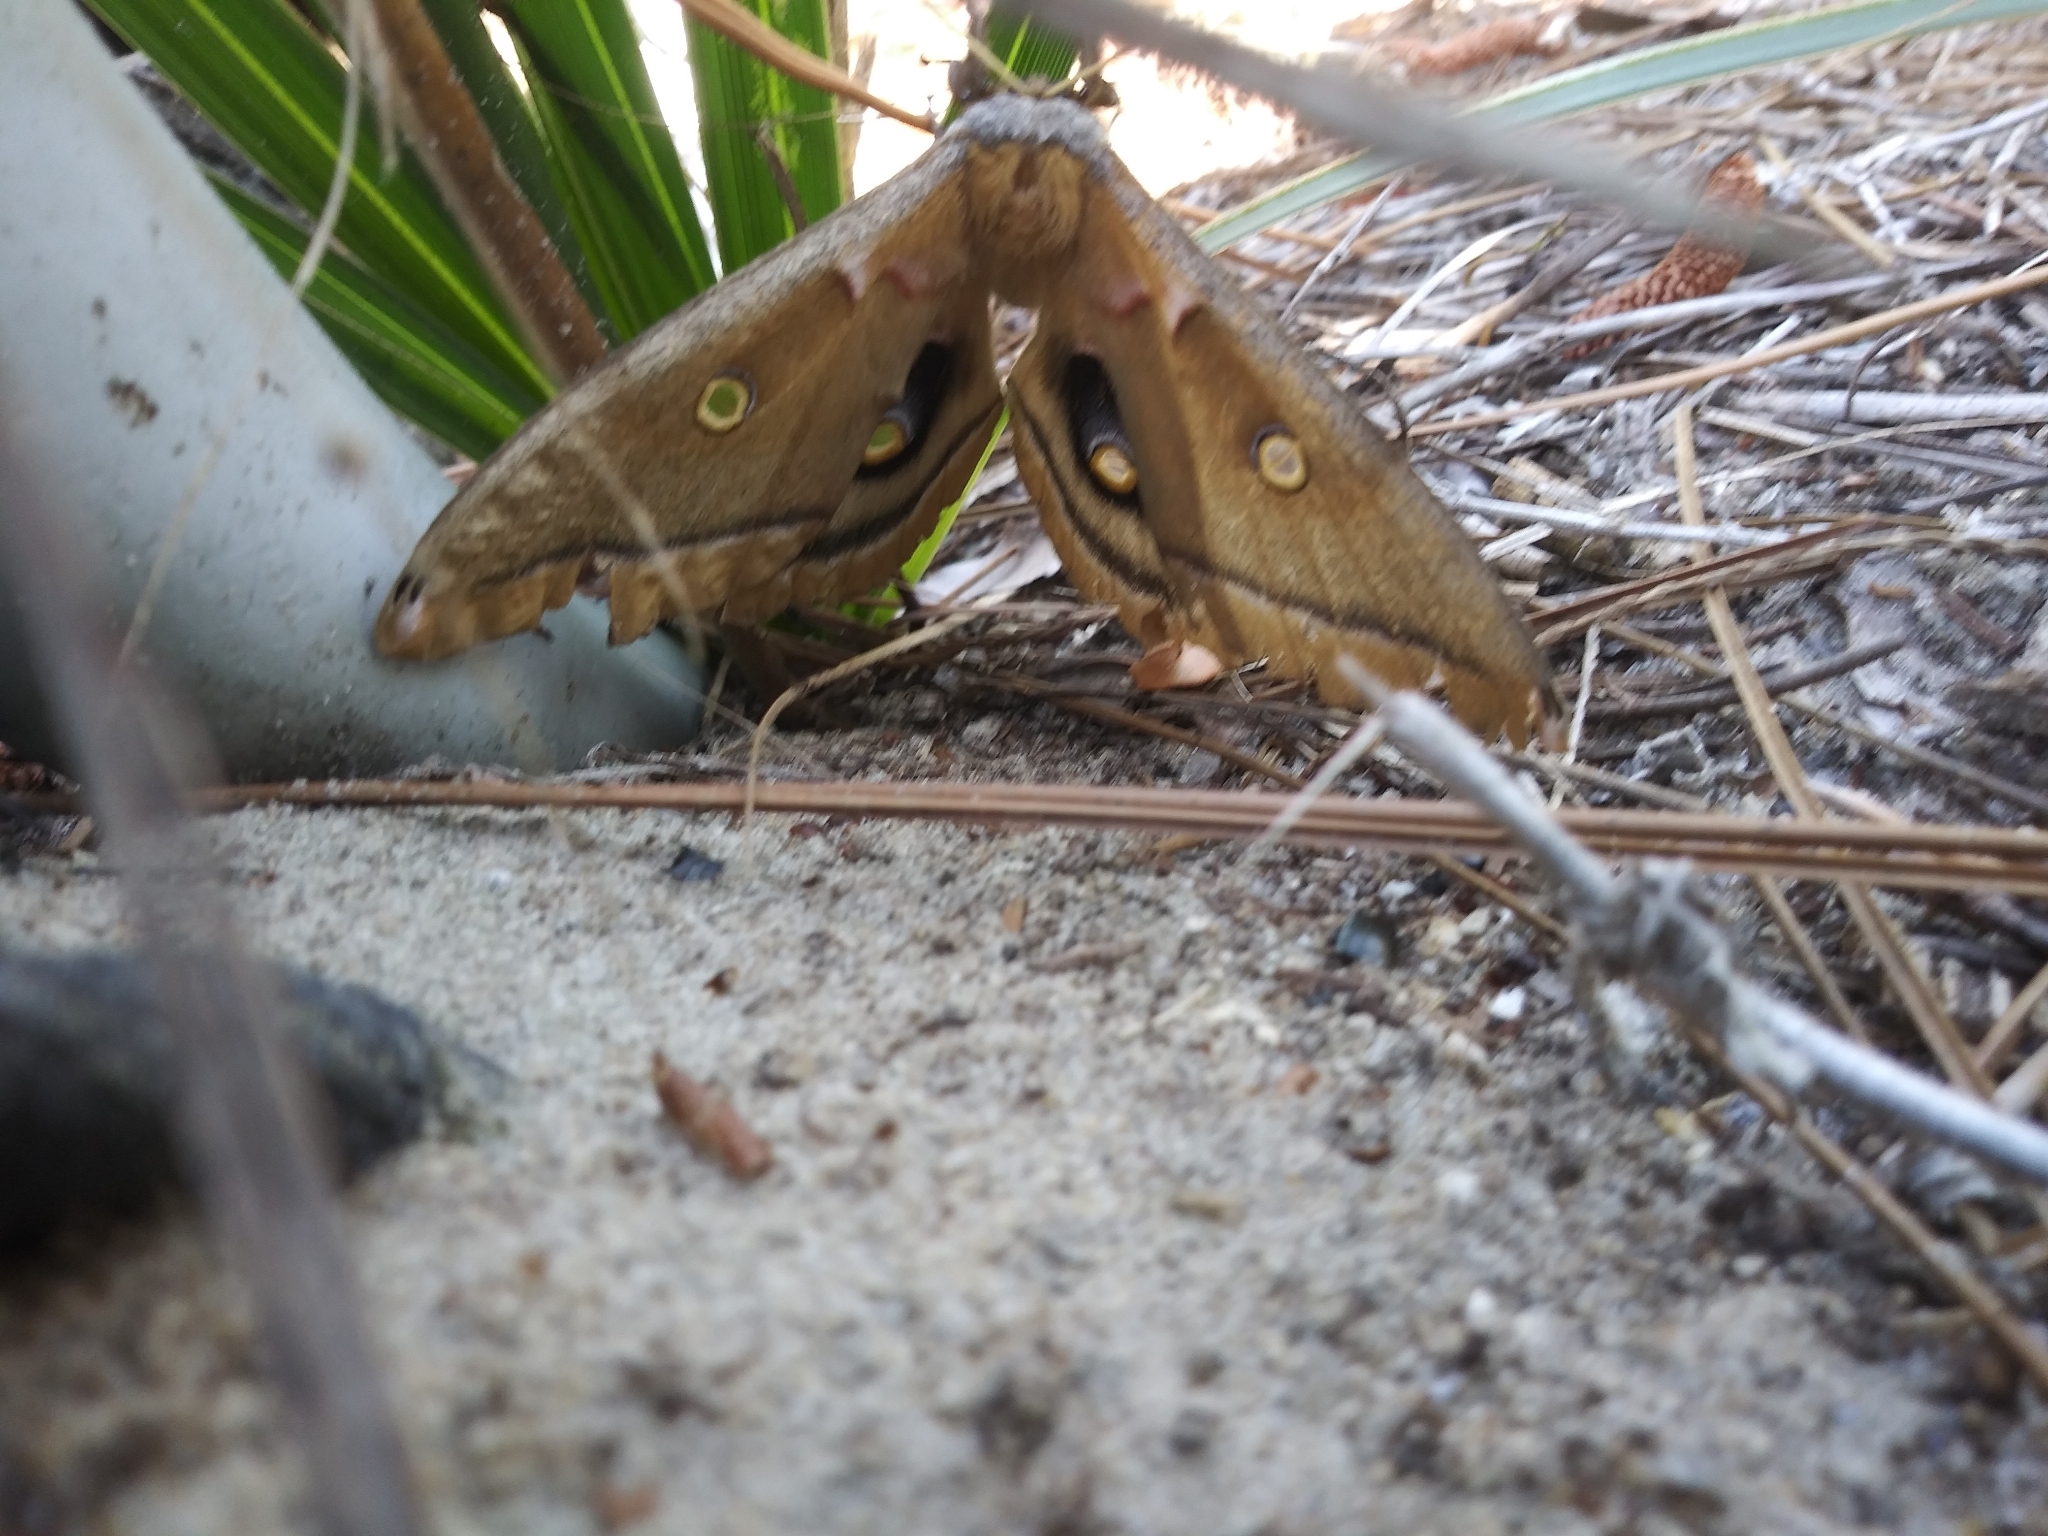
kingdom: Animalia
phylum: Arthropoda
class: Insecta
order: Lepidoptera
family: Saturniidae
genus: Antheraea
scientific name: Antheraea polyphemus
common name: Polyphemus moth
